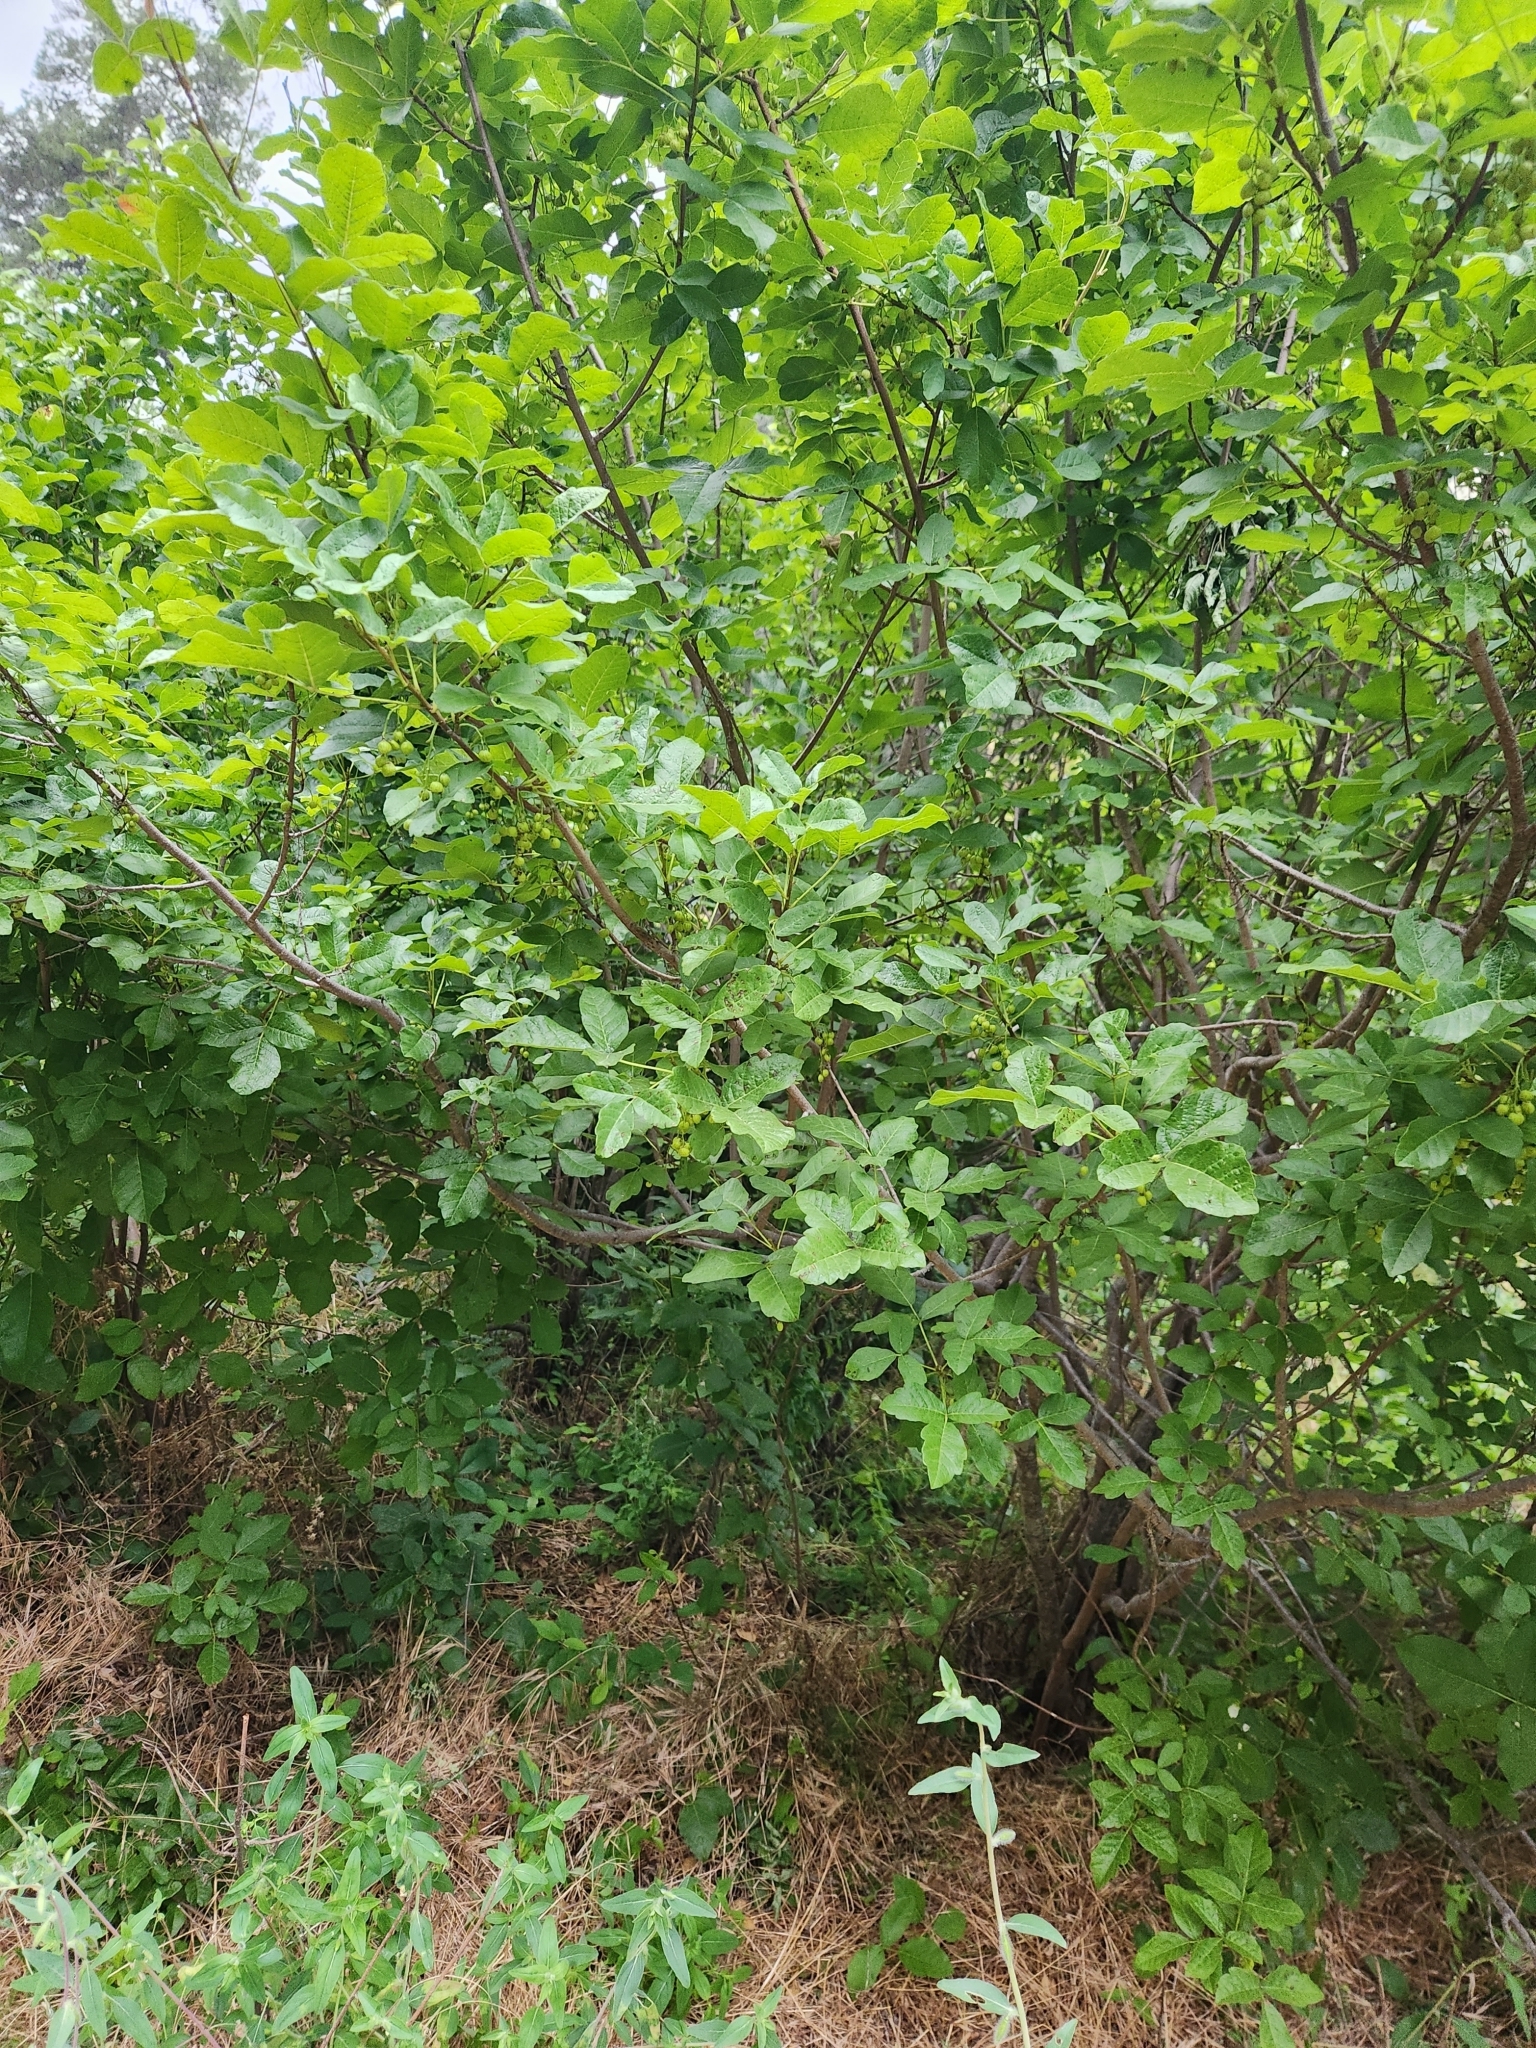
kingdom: Plantae
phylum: Tracheophyta
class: Magnoliopsida
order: Sapindales
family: Anacardiaceae
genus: Toxicodendron
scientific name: Toxicodendron diversilobum
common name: Pacific poison-oak
